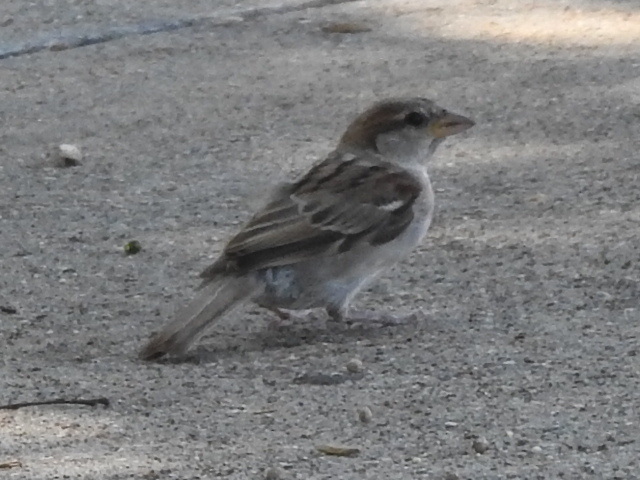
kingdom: Animalia
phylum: Chordata
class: Aves
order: Passeriformes
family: Passeridae
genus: Passer
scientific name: Passer domesticus
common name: House sparrow
